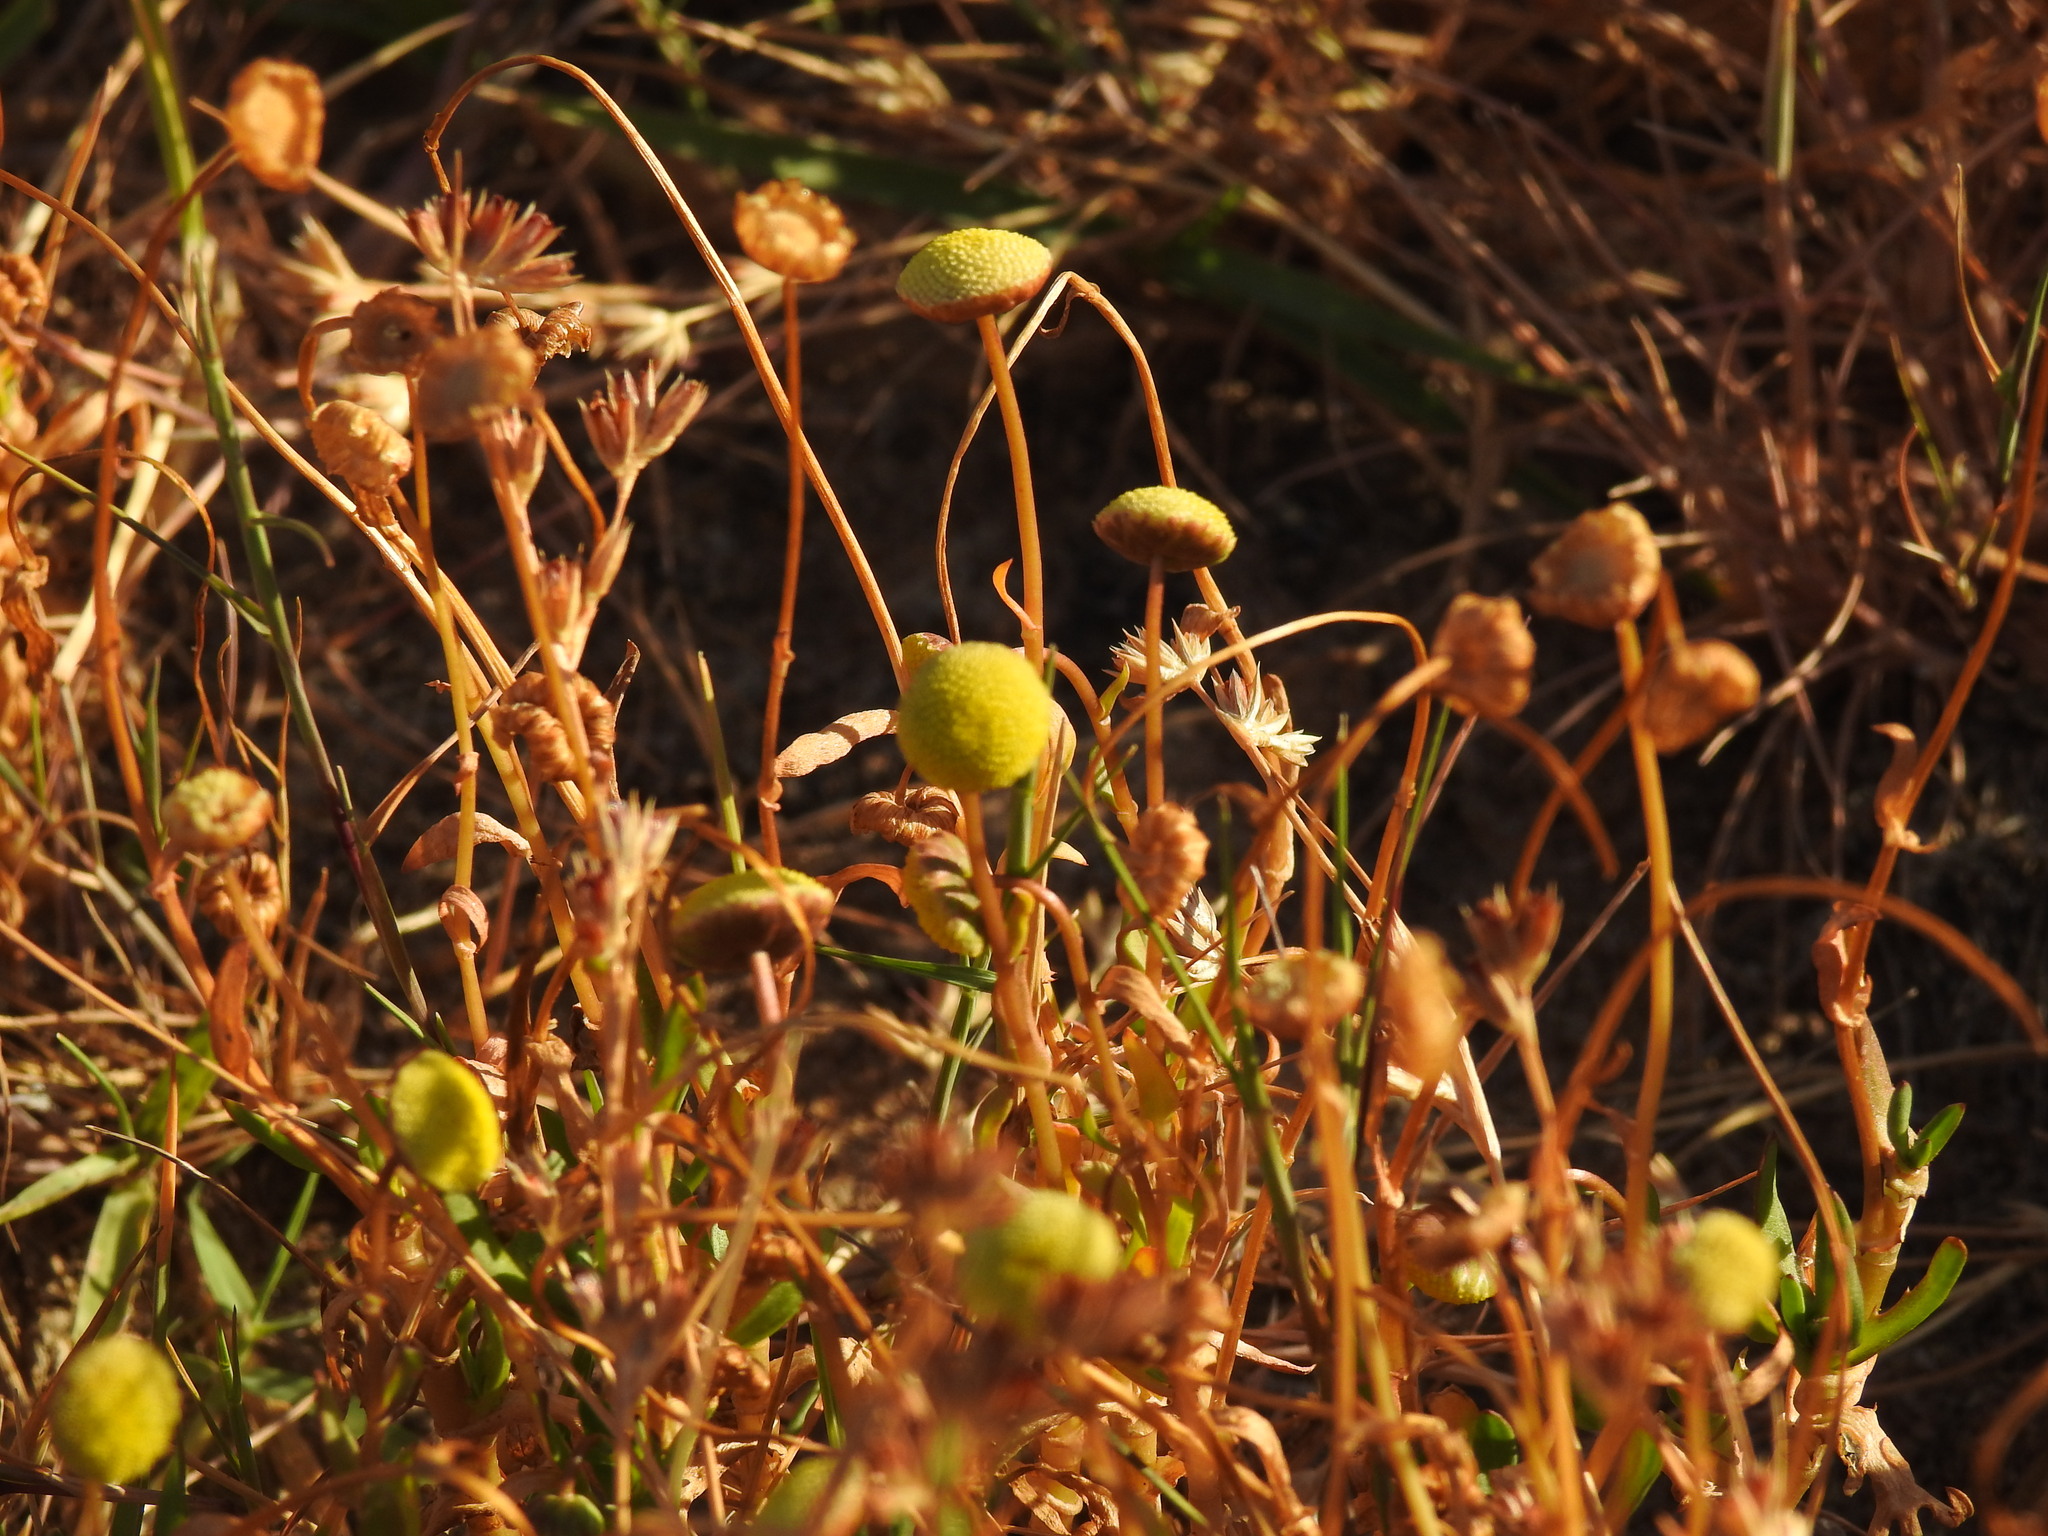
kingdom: Plantae
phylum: Tracheophyta
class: Magnoliopsida
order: Asterales
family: Asteraceae
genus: Cotula
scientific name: Cotula coronopifolia
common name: Buttonweed
